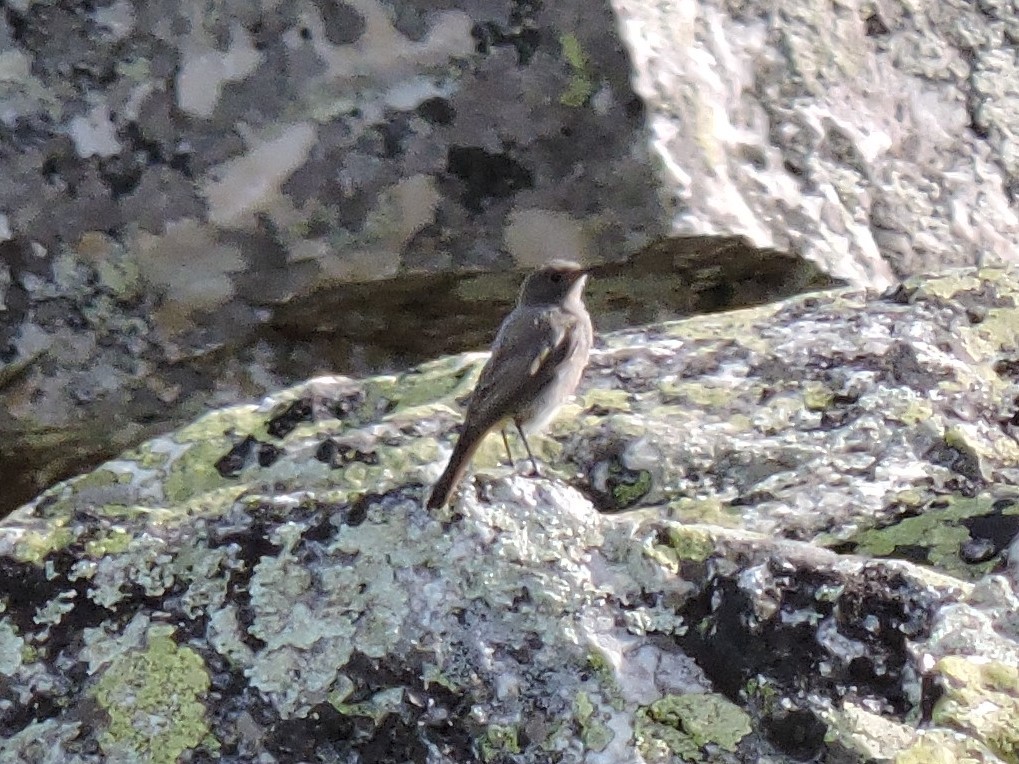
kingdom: Animalia
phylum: Chordata
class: Aves
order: Passeriformes
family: Muscicapidae
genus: Phoenicurus
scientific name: Phoenicurus ochruros
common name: Black redstart
